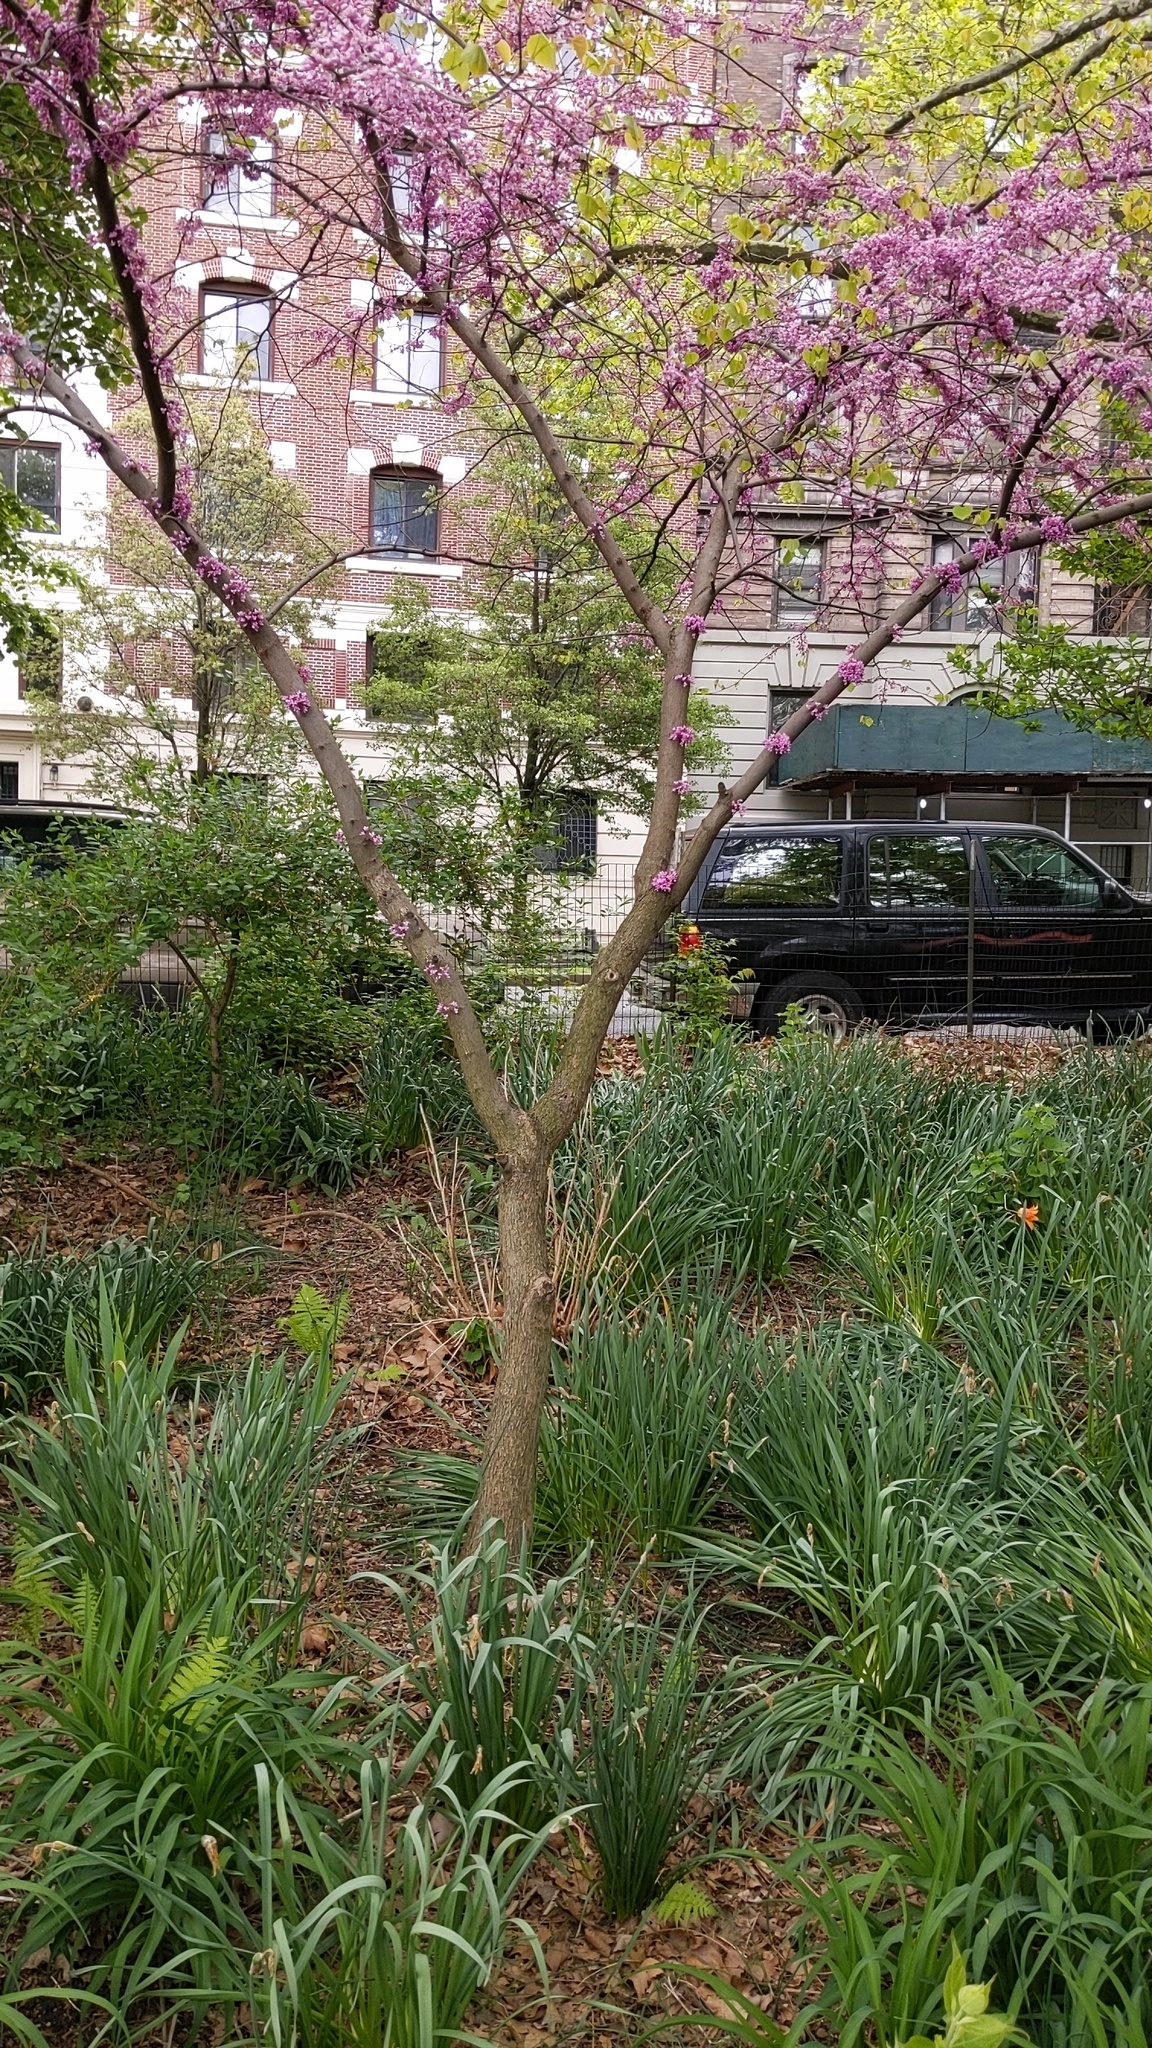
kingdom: Plantae
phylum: Tracheophyta
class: Magnoliopsida
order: Fabales
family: Fabaceae
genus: Cercis
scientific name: Cercis canadensis
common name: Eastern redbud
